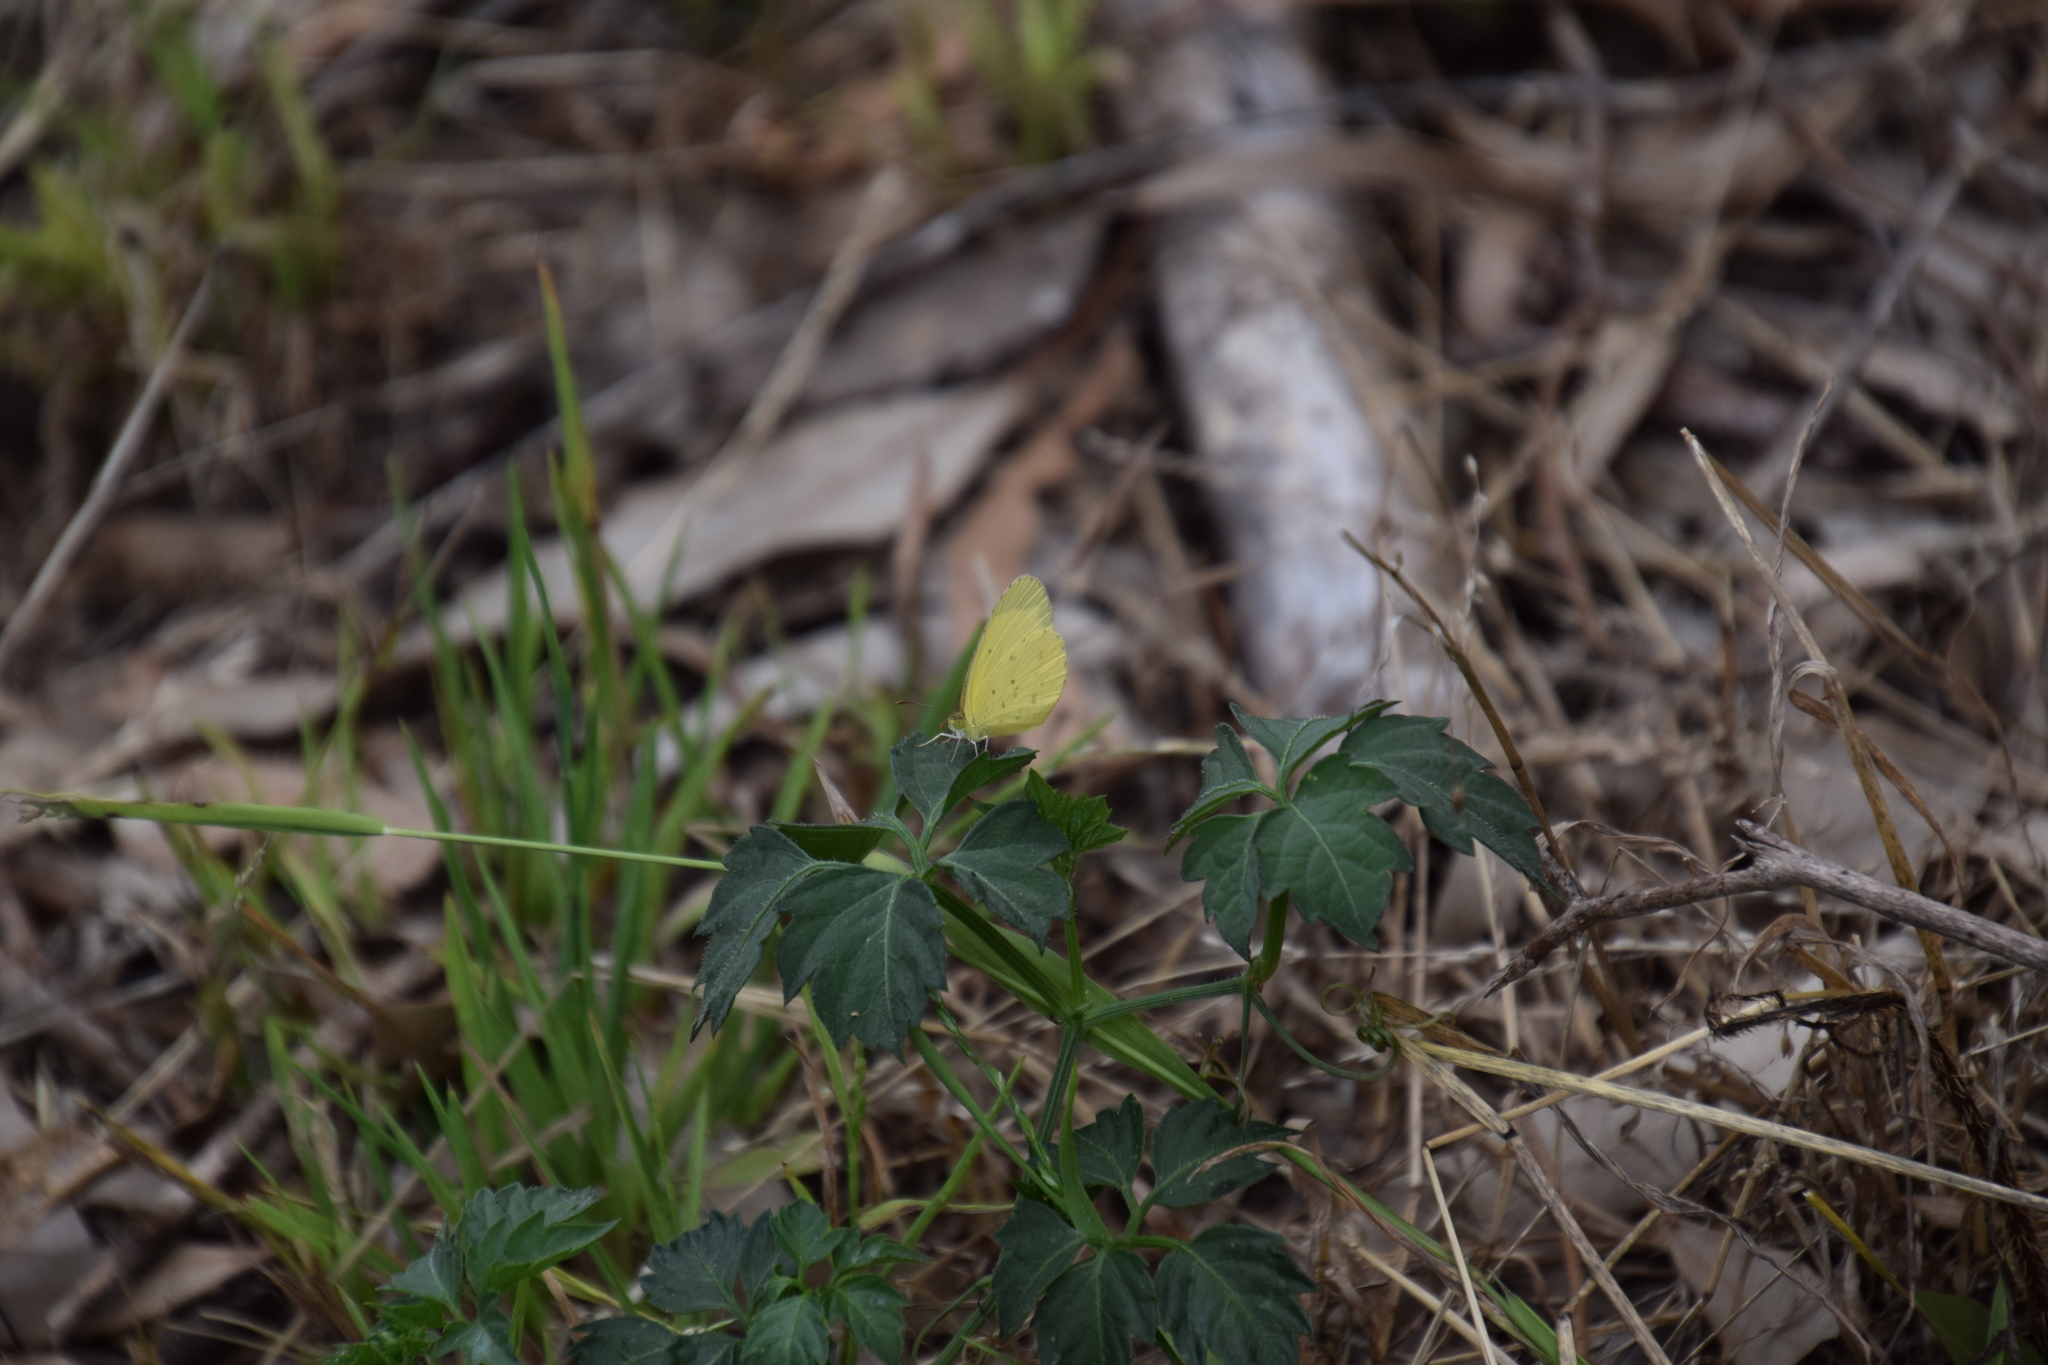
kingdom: Animalia
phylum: Arthropoda
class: Insecta
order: Lepidoptera
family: Pieridae
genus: Eurema
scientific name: Eurema hecabe
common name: Pale grass yellow
